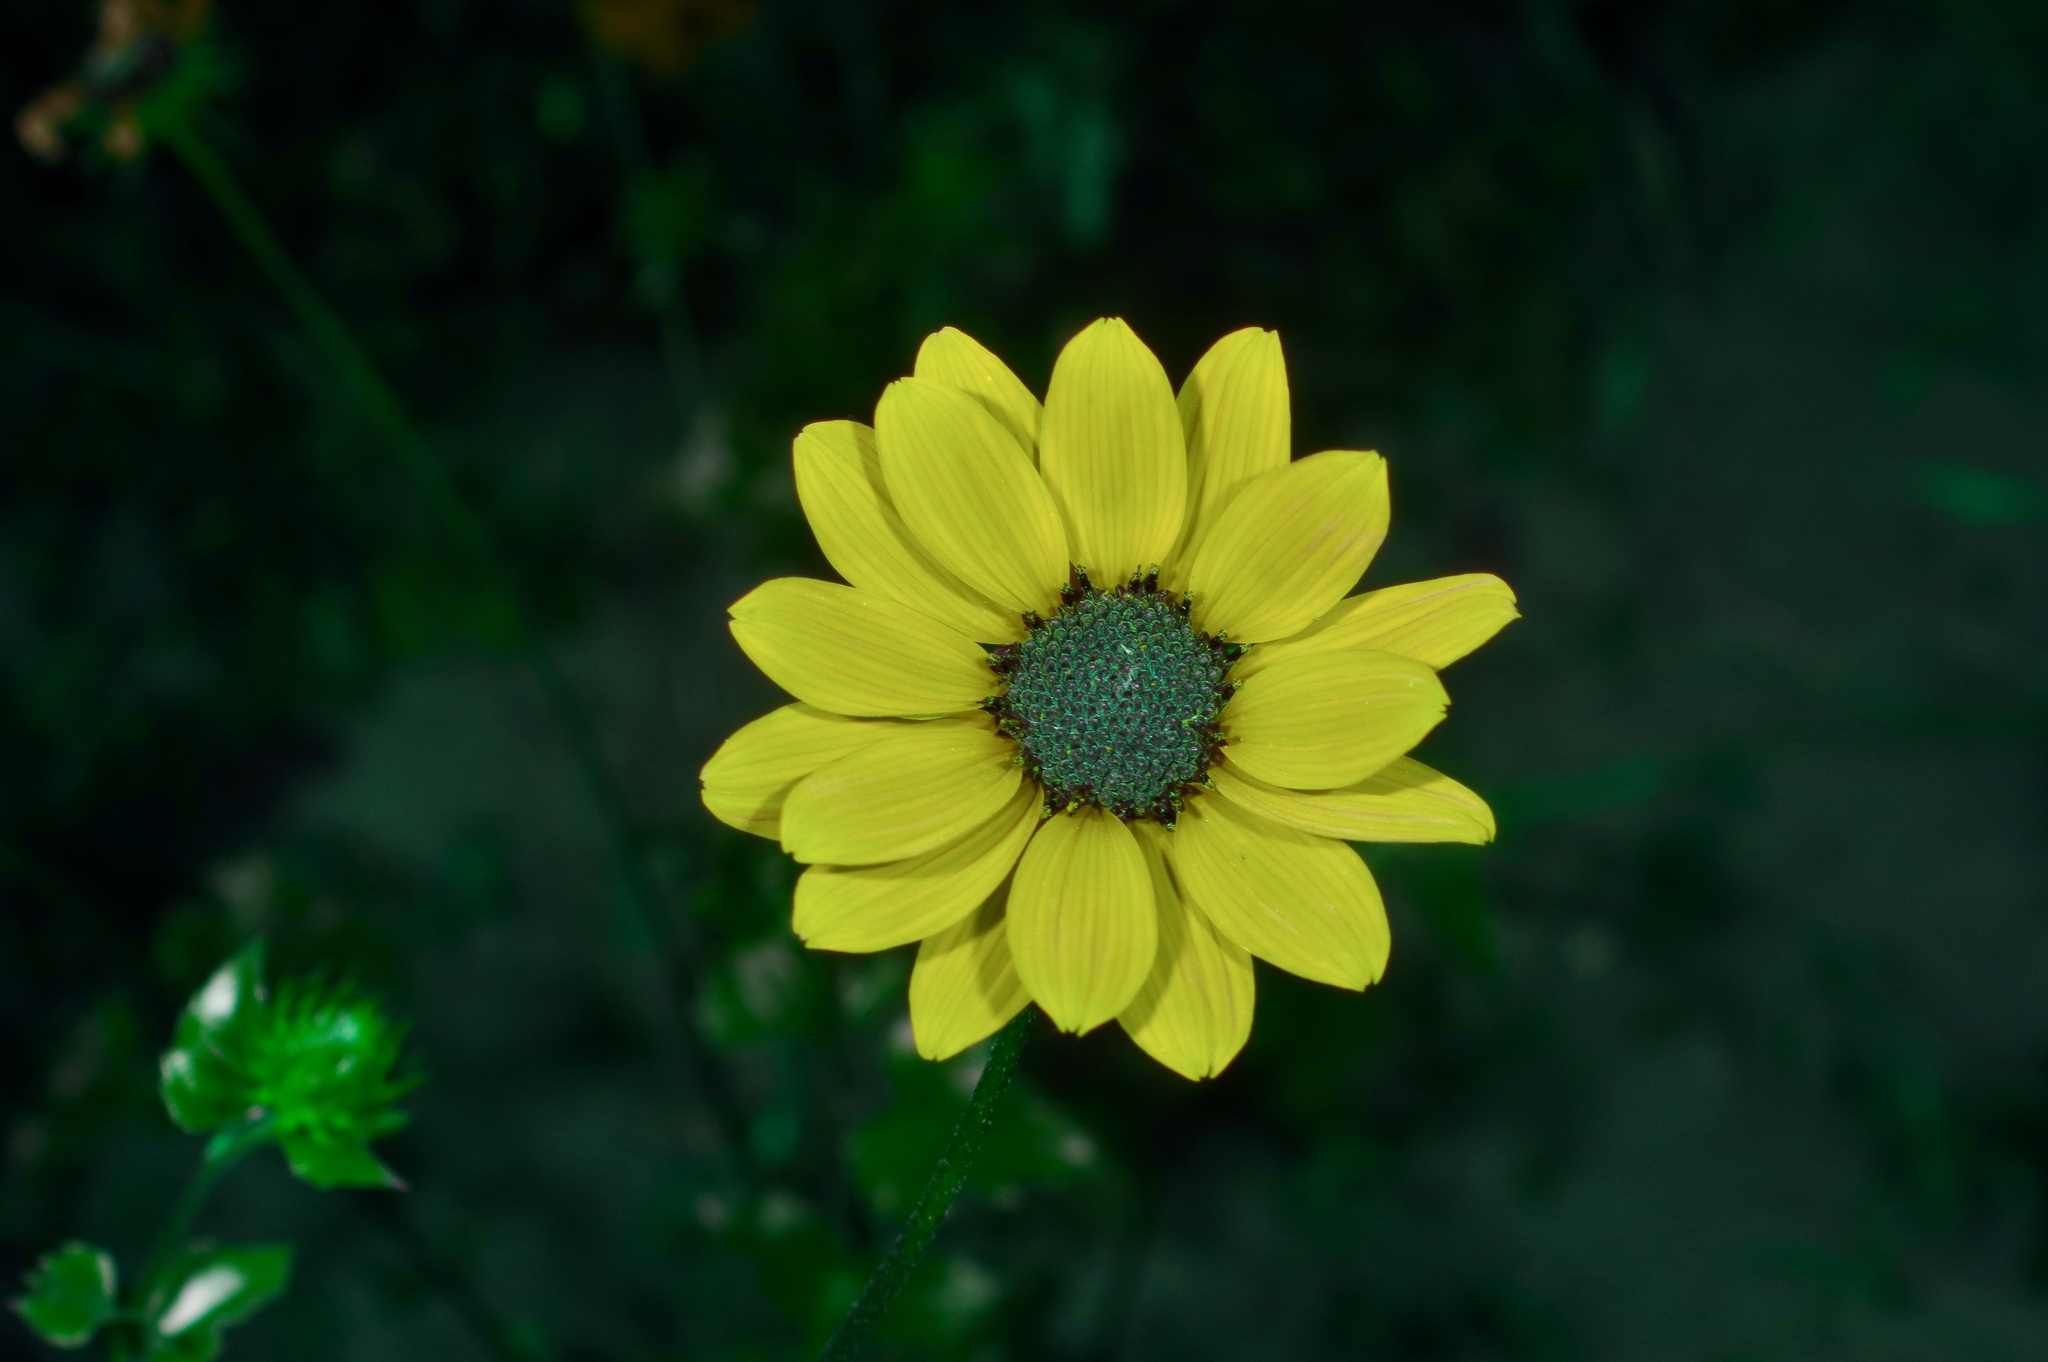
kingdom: Plantae
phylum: Tracheophyta
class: Magnoliopsida
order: Asterales
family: Asteraceae
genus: Helianthus
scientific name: Helianthus debilis
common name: Weak sunflower
